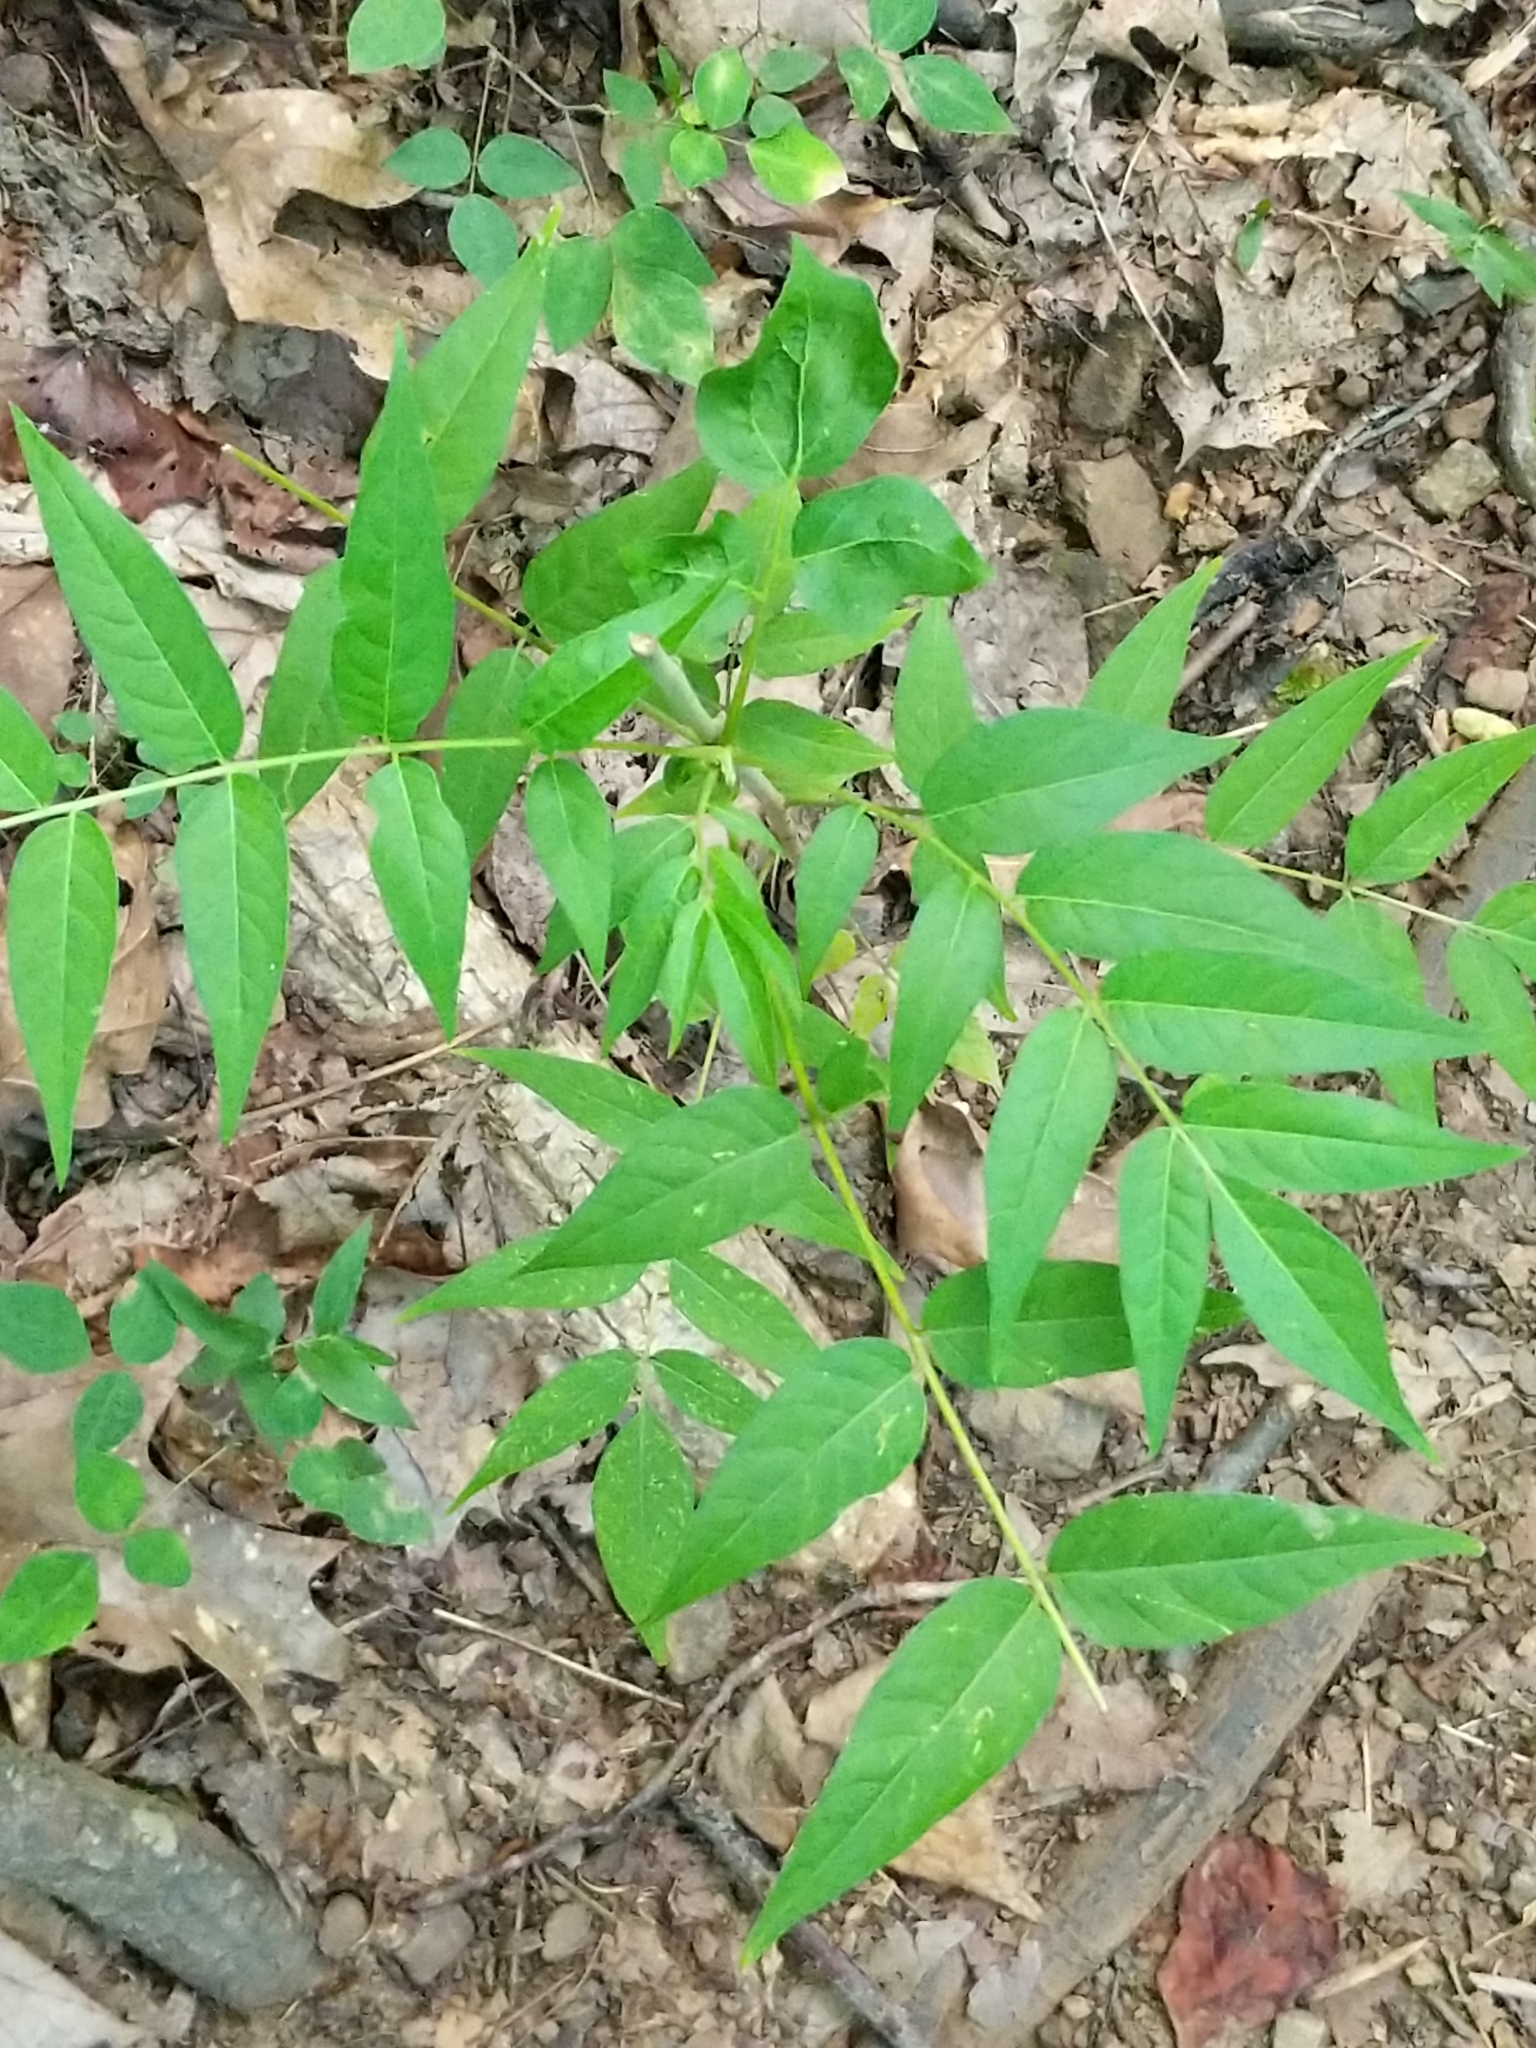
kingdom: Plantae
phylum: Tracheophyta
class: Magnoliopsida
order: Sapindales
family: Simaroubaceae
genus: Ailanthus
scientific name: Ailanthus altissima
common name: Tree-of-heaven
